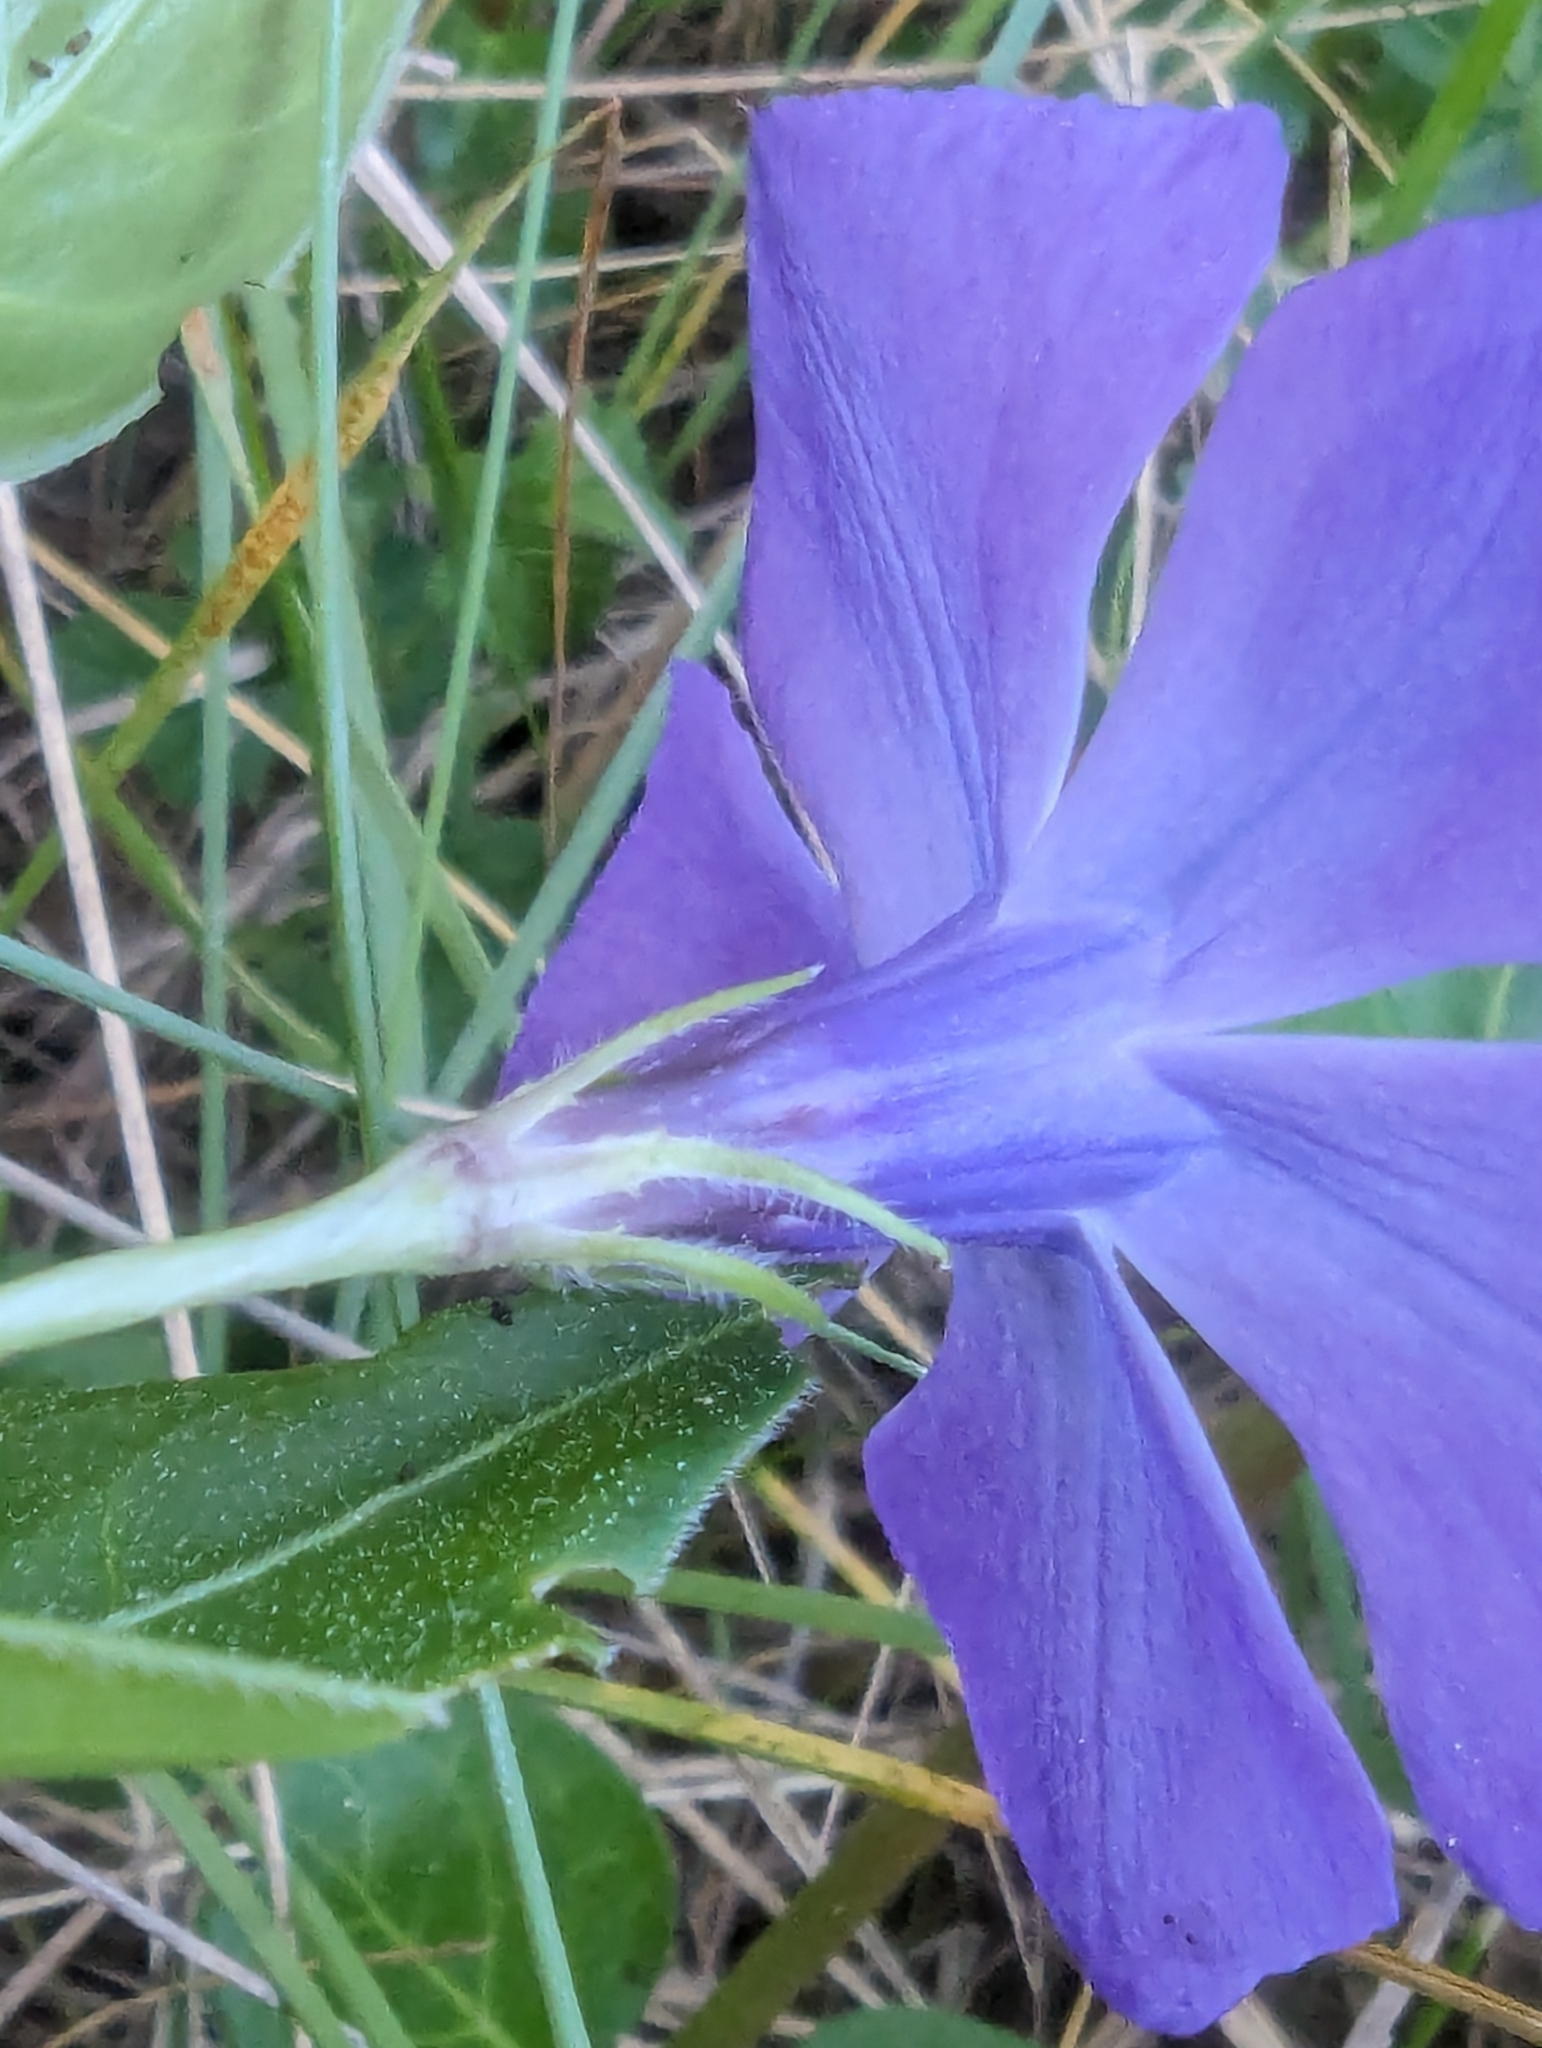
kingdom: Plantae
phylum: Tracheophyta
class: Magnoliopsida
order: Gentianales
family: Apocynaceae
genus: Vinca
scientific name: Vinca major
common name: Greater periwinkle
